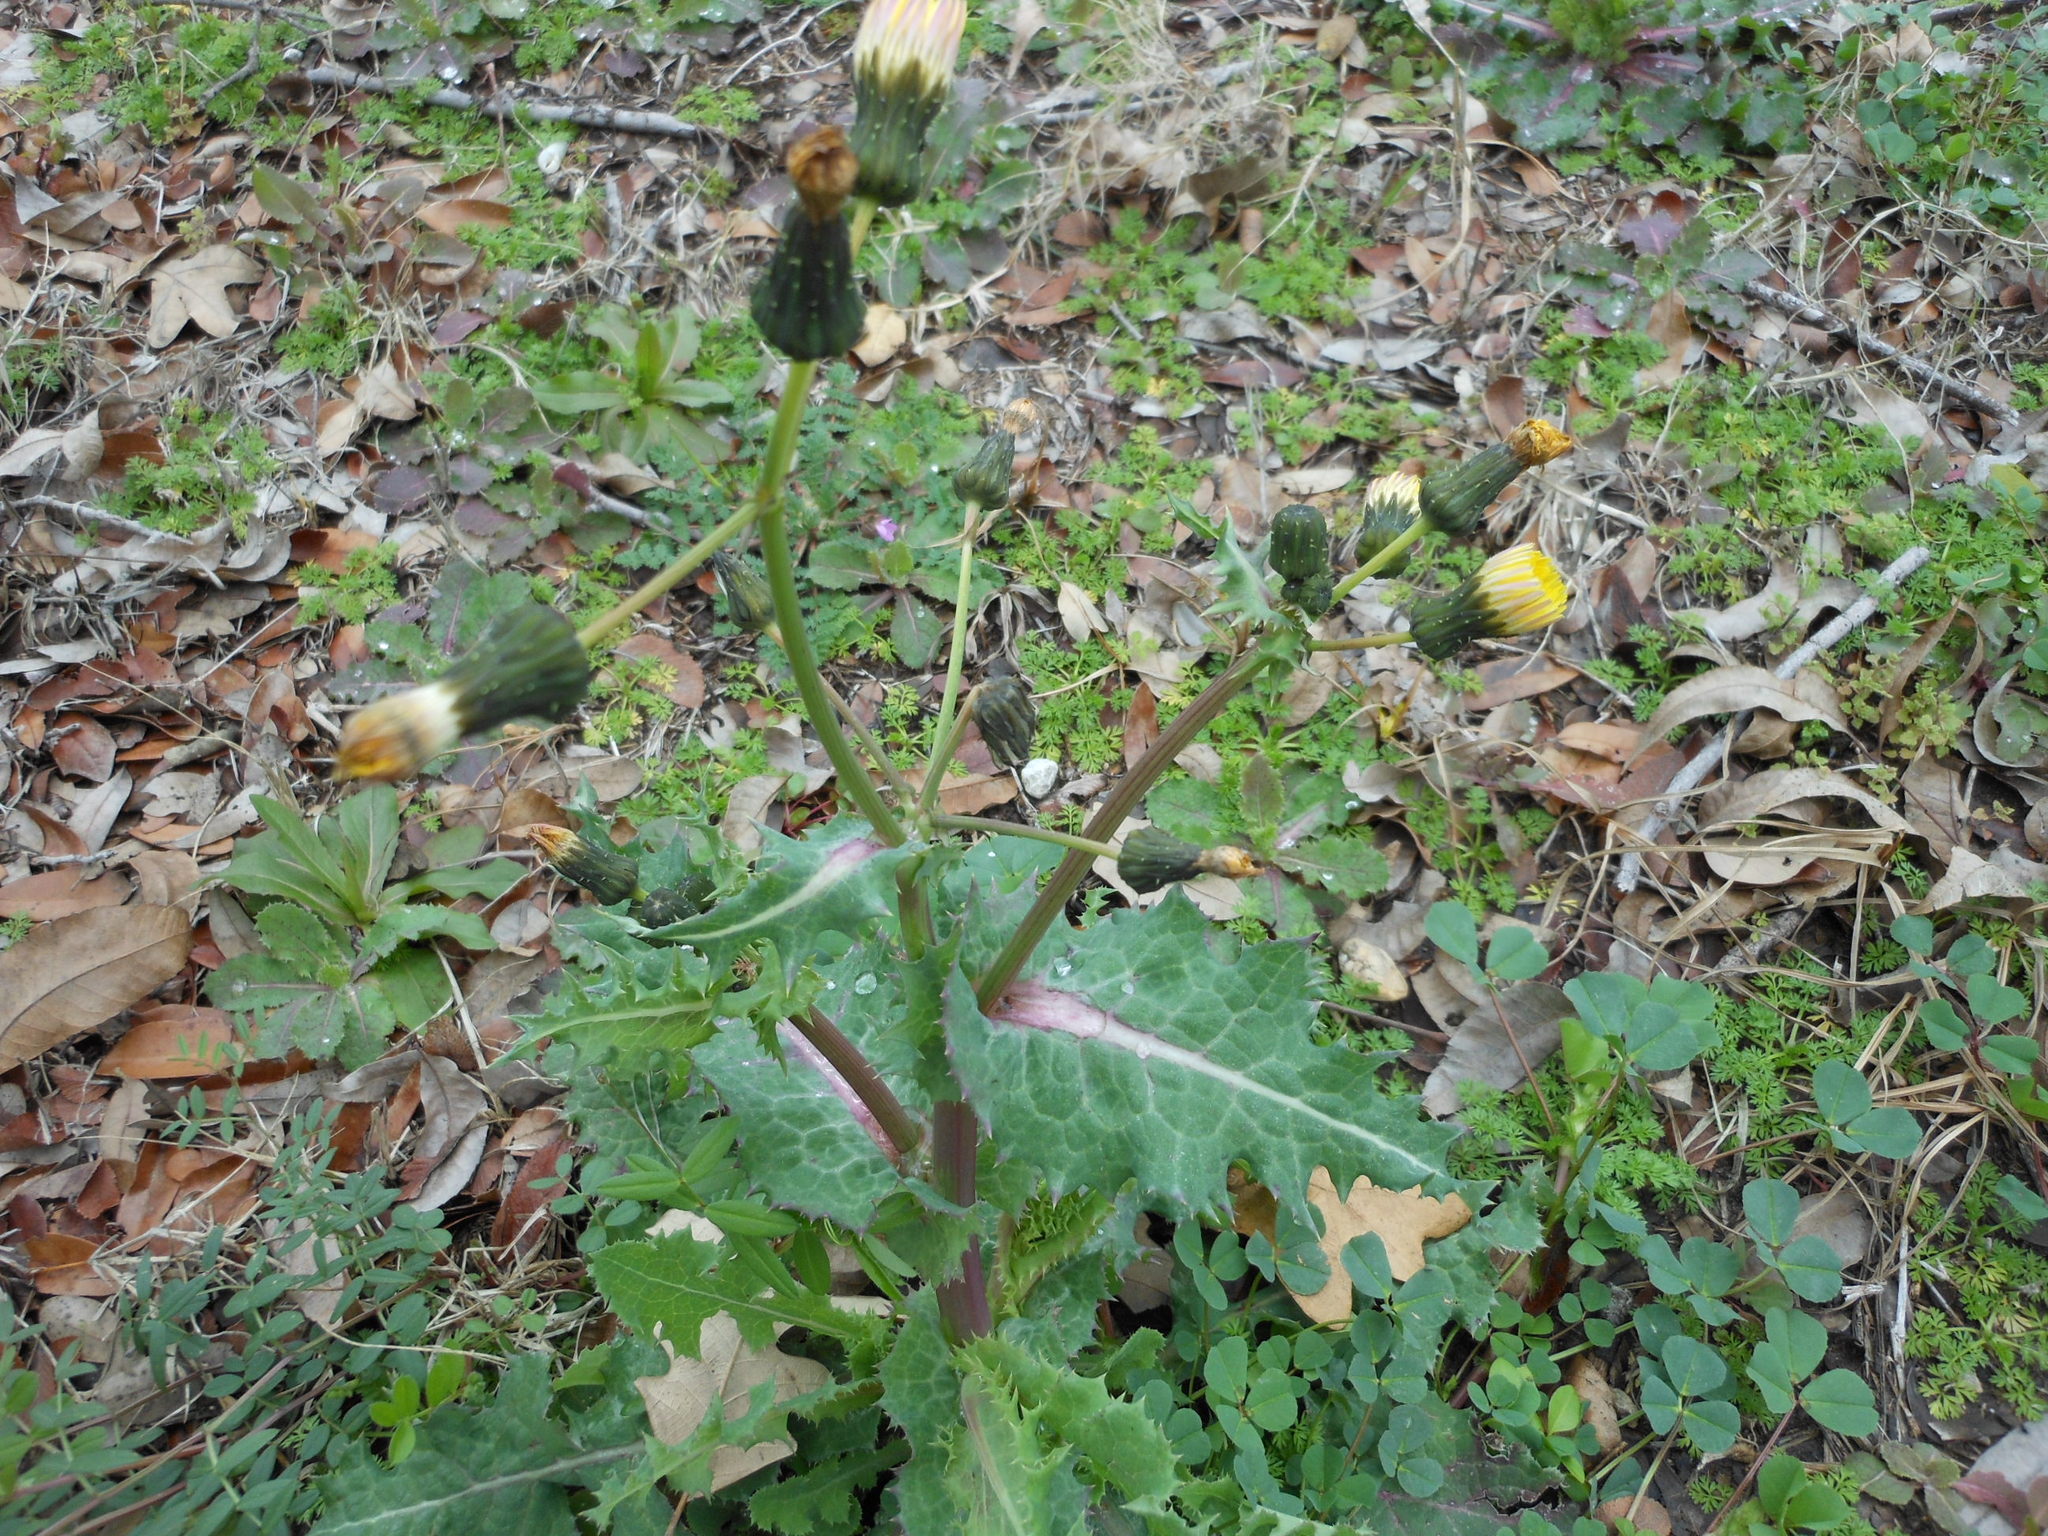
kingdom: Plantae
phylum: Tracheophyta
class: Magnoliopsida
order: Asterales
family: Asteraceae
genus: Sonchus
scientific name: Sonchus asper
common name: Prickly sow-thistle
